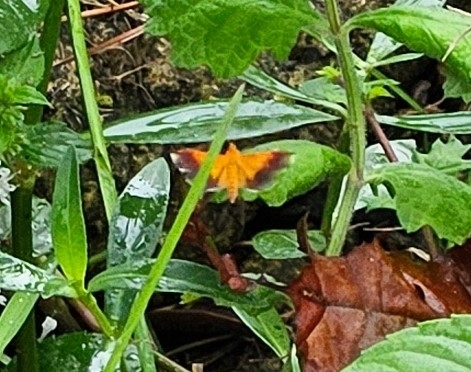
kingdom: Animalia
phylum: Arthropoda
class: Insecta
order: Lepidoptera
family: Crambidae
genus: Pyrausta
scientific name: Pyrausta bicoloralis
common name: Bicolored pyrausta moth
